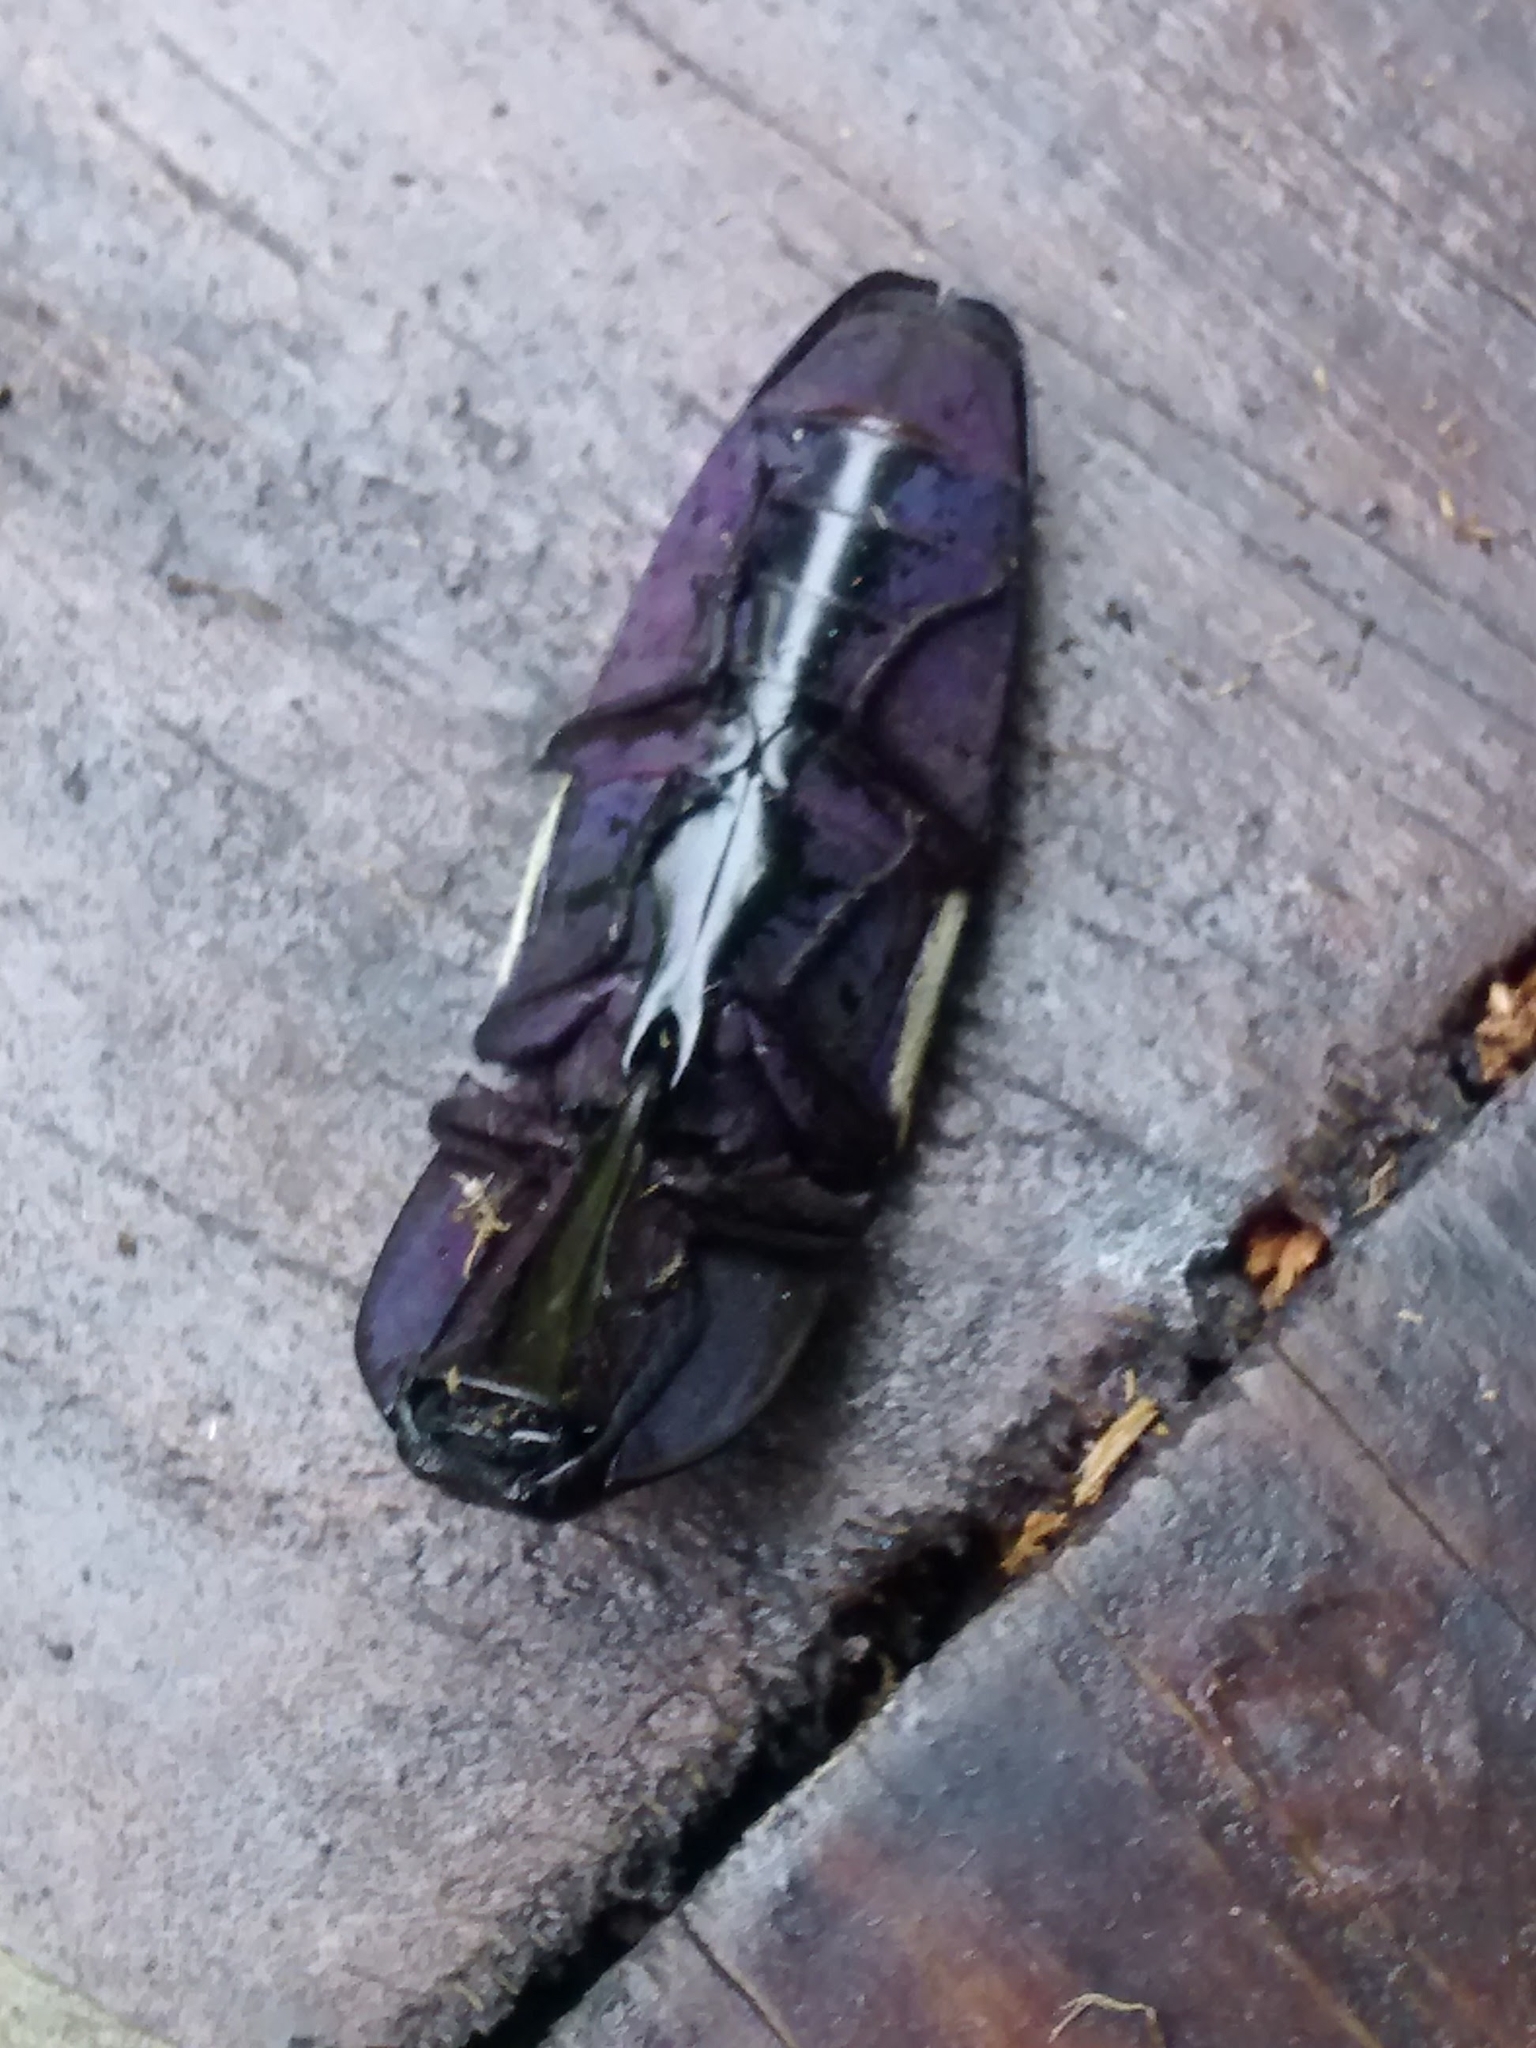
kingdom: Animalia
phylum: Arthropoda
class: Insecta
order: Coleoptera
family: Elateridae
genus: Chalcolepidius
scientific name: Chalcolepidius
